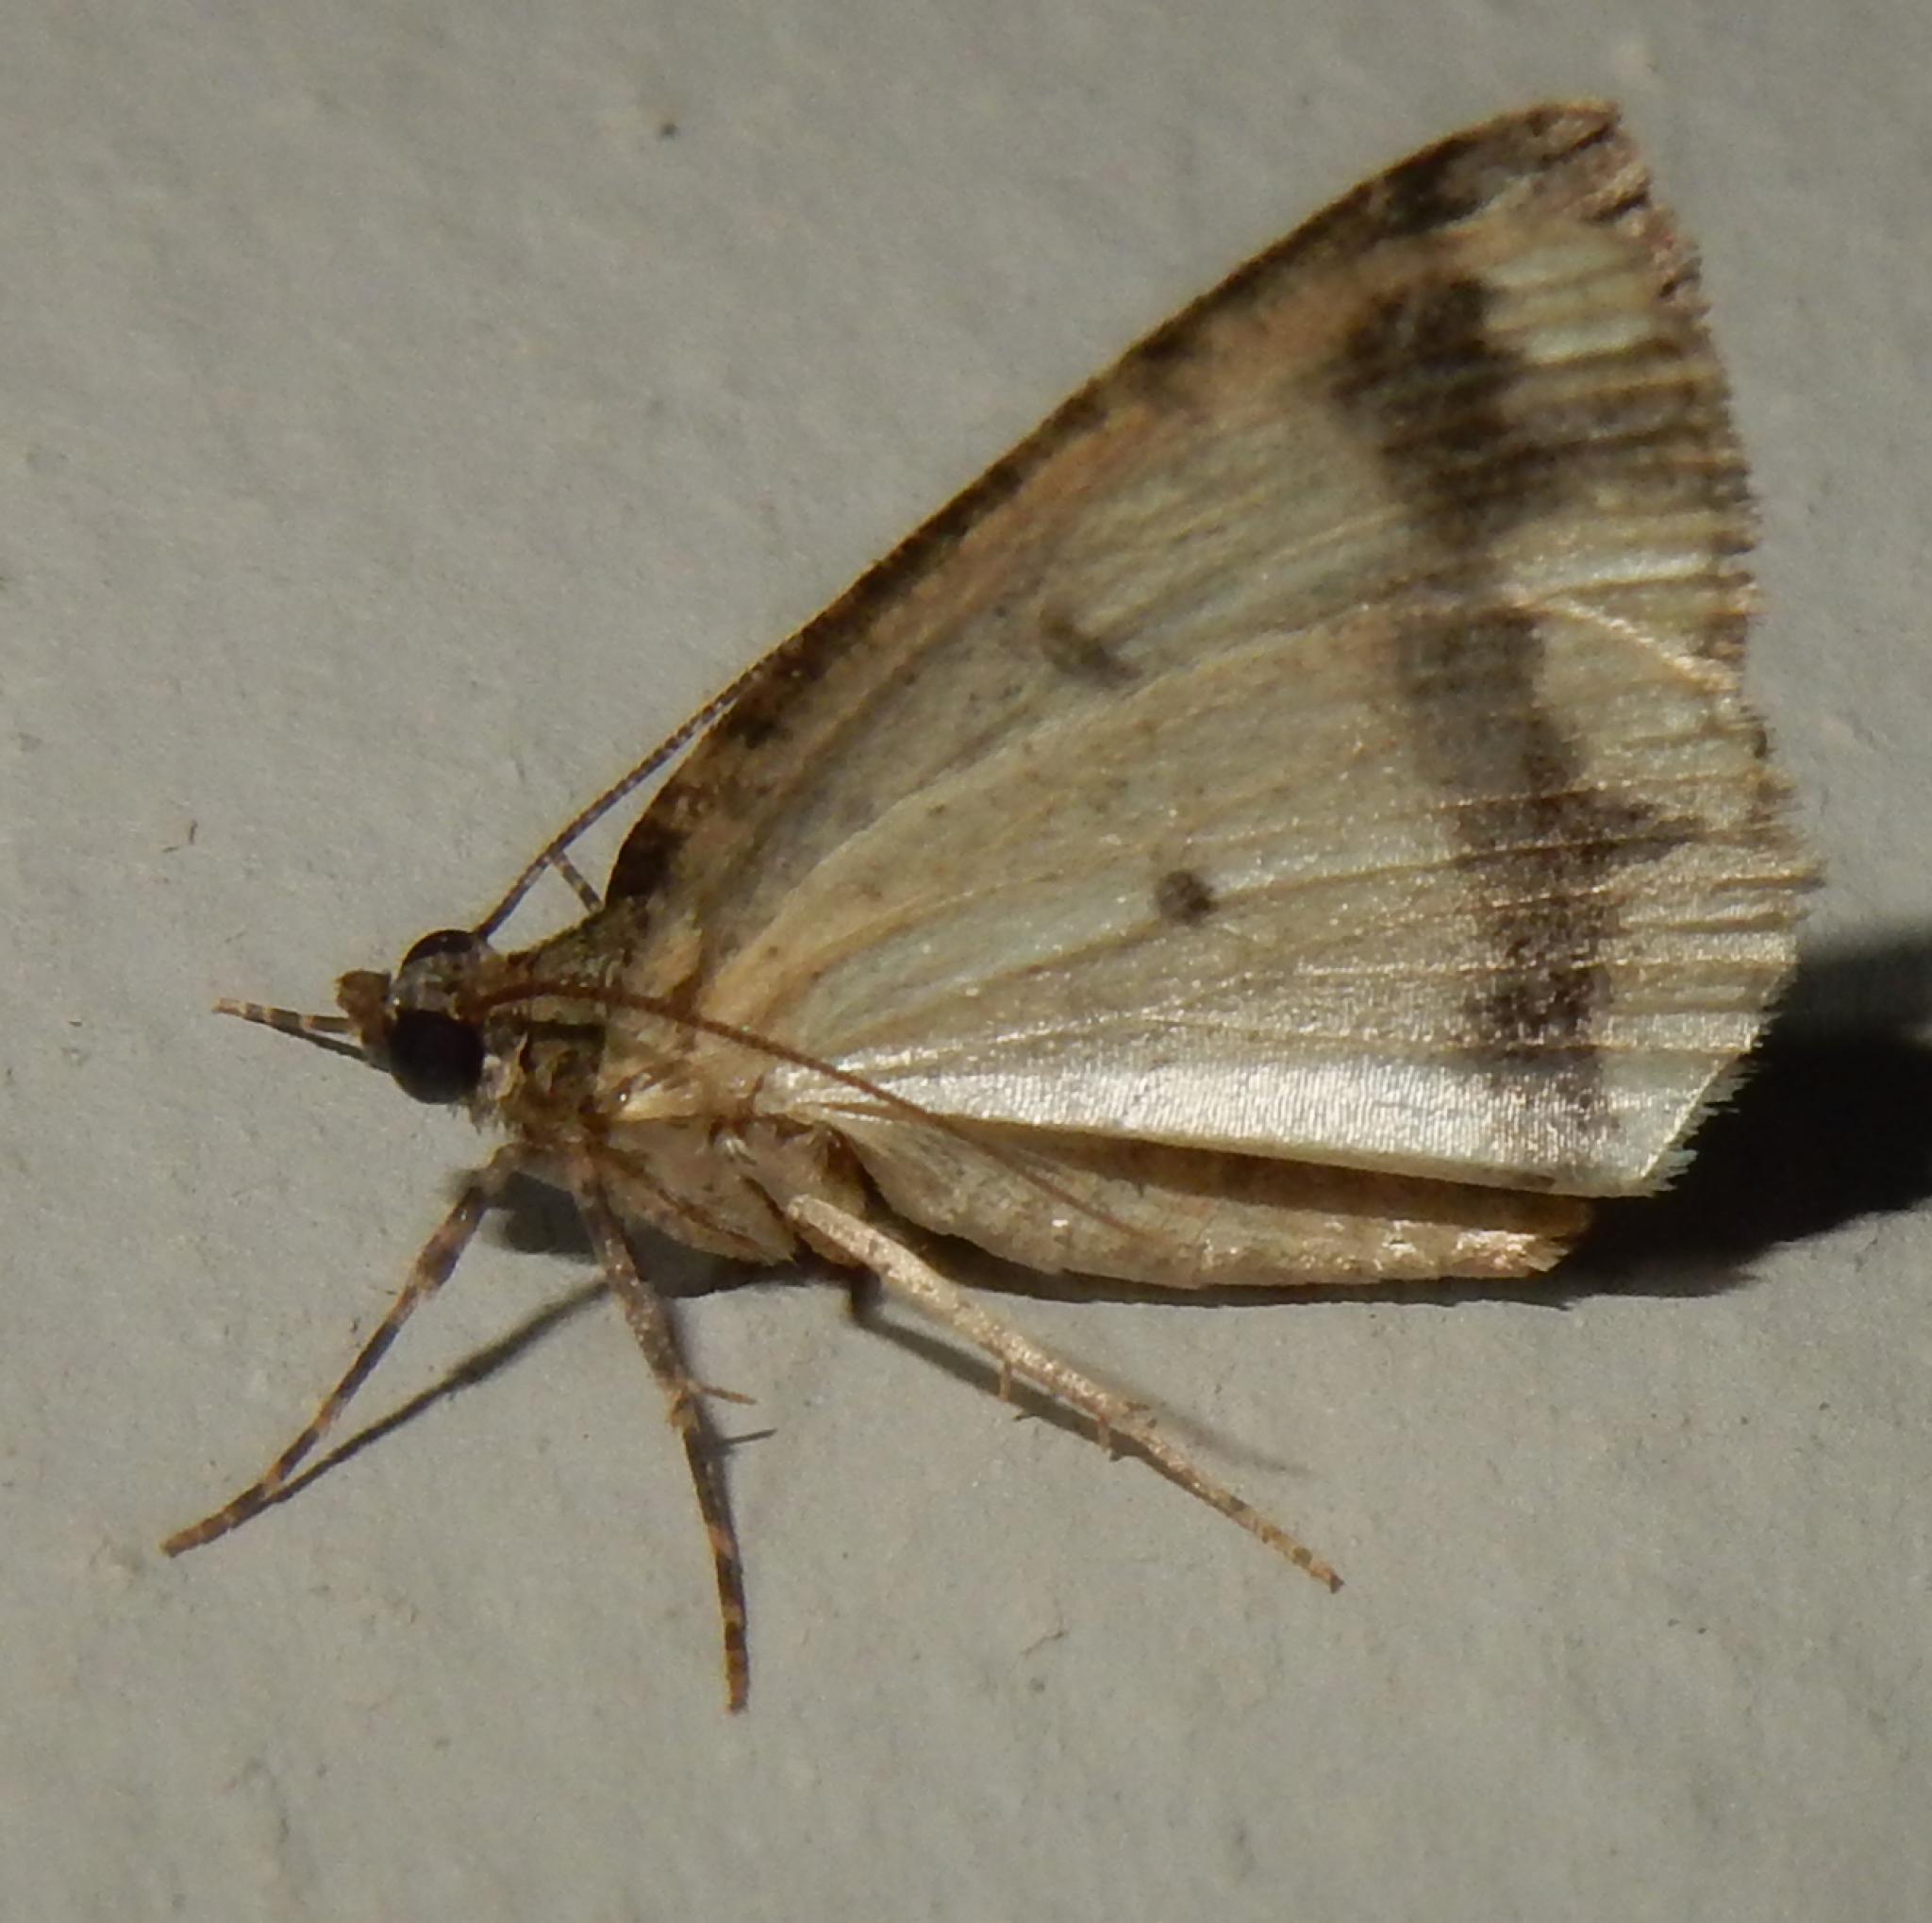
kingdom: Animalia
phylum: Arthropoda
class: Insecta
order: Lepidoptera
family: Geometridae
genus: Xylopteryx
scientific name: Xylopteryx arcuata
